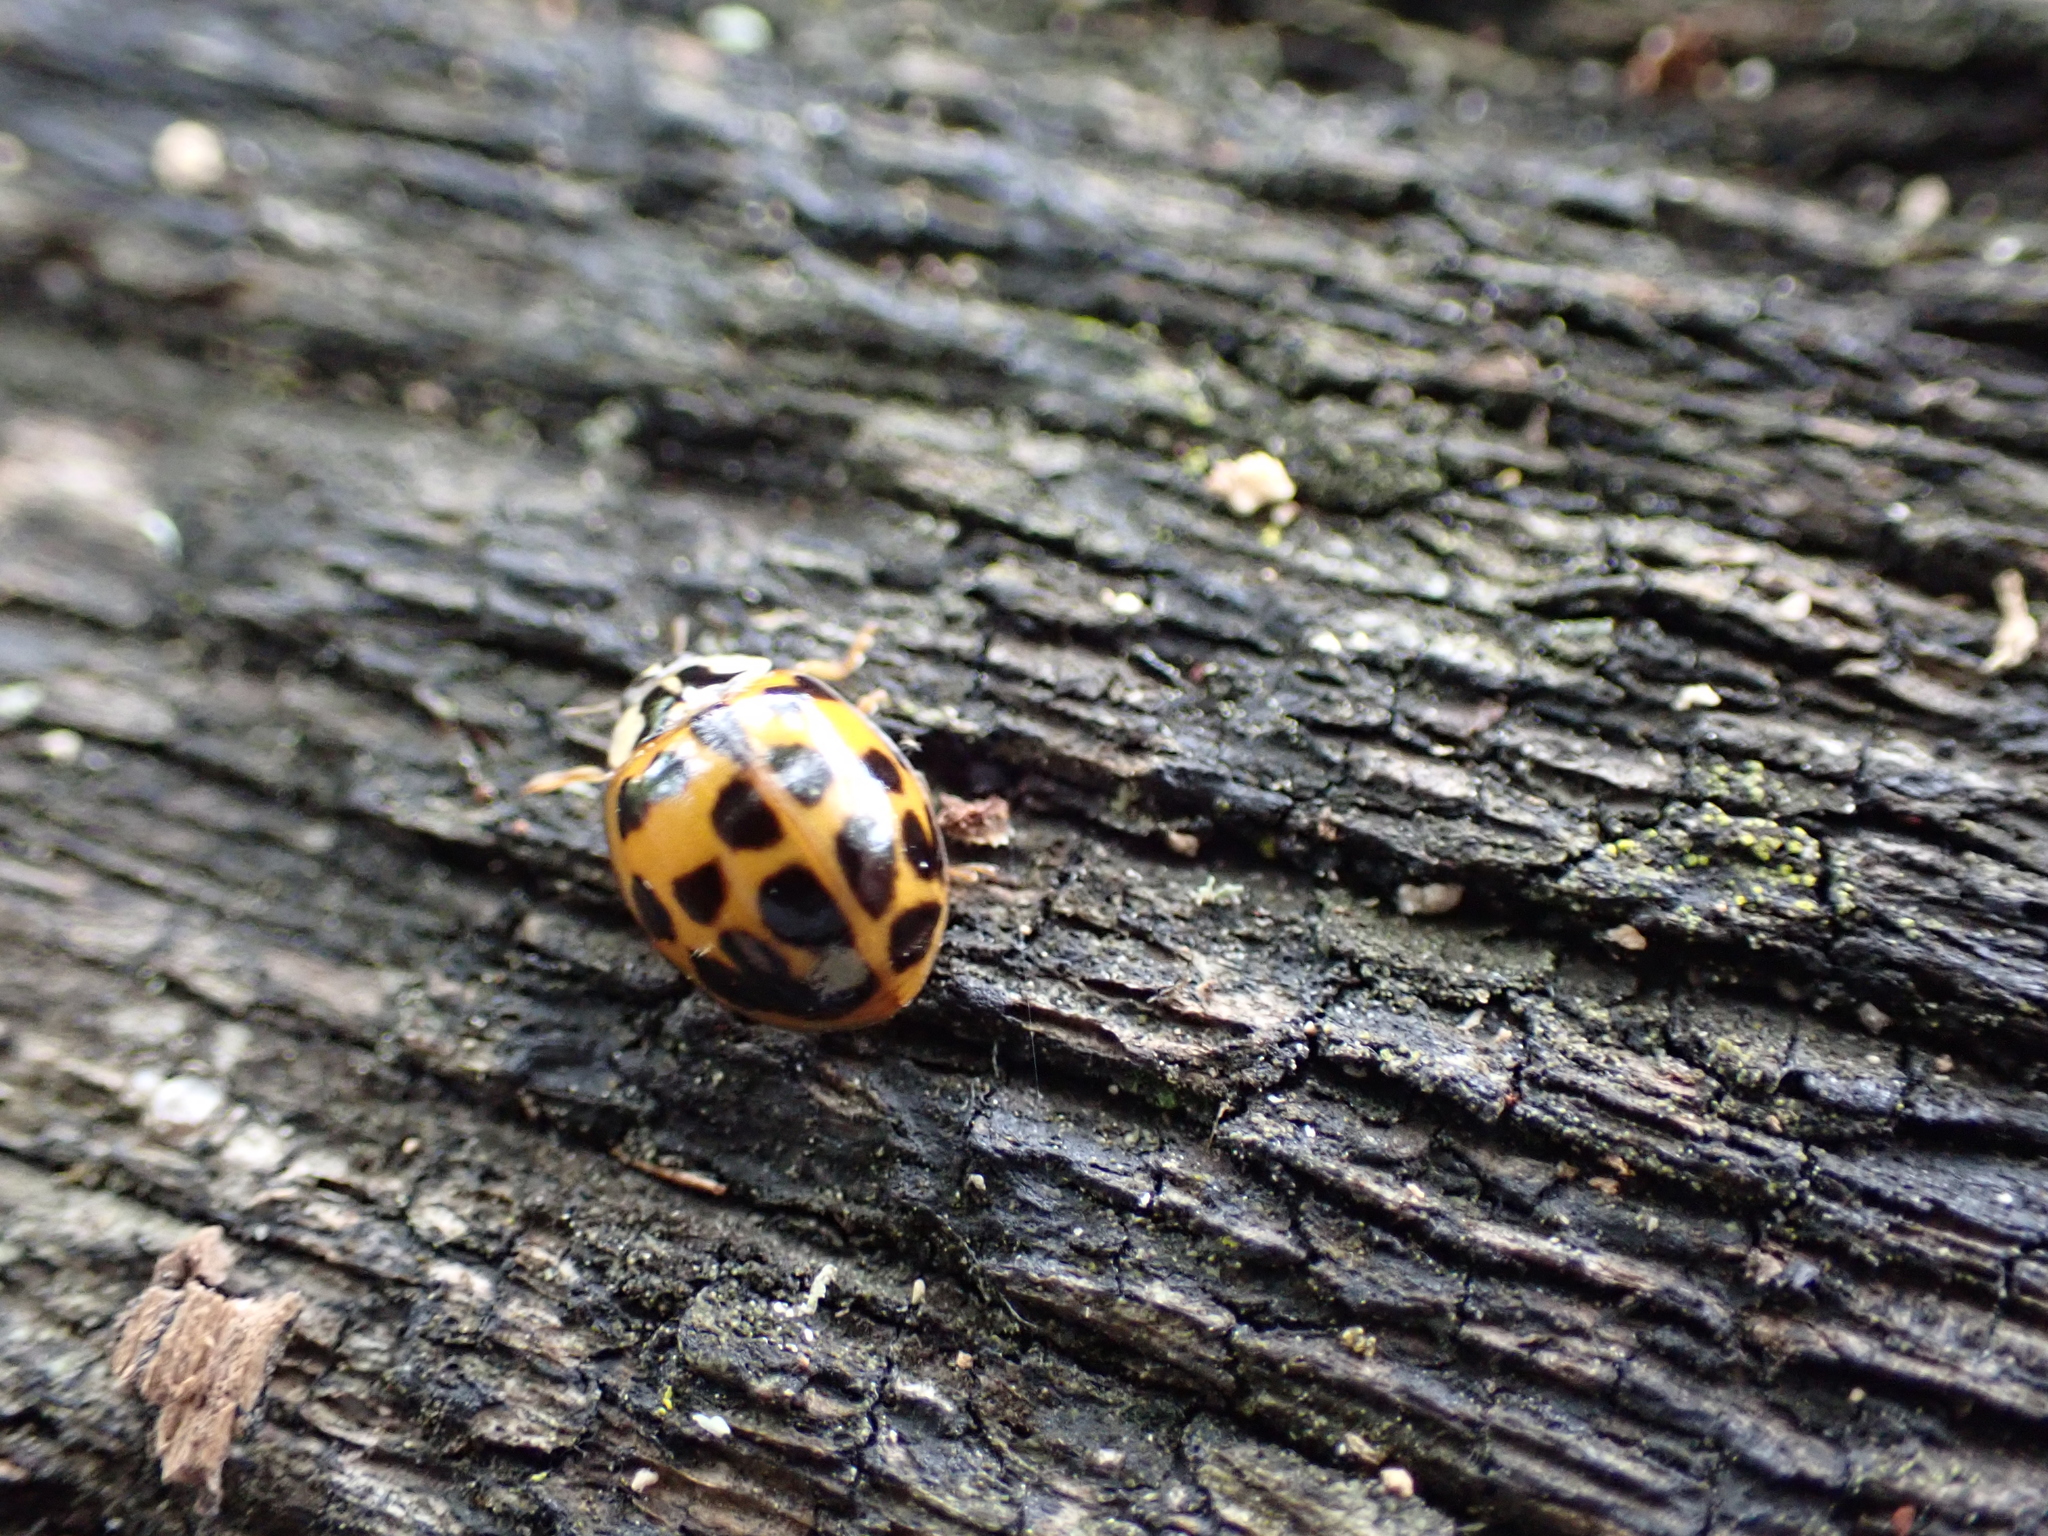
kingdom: Animalia
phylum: Arthropoda
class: Insecta
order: Coleoptera
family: Coccinellidae
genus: Harmonia
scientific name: Harmonia axyridis
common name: Harlequin ladybird
